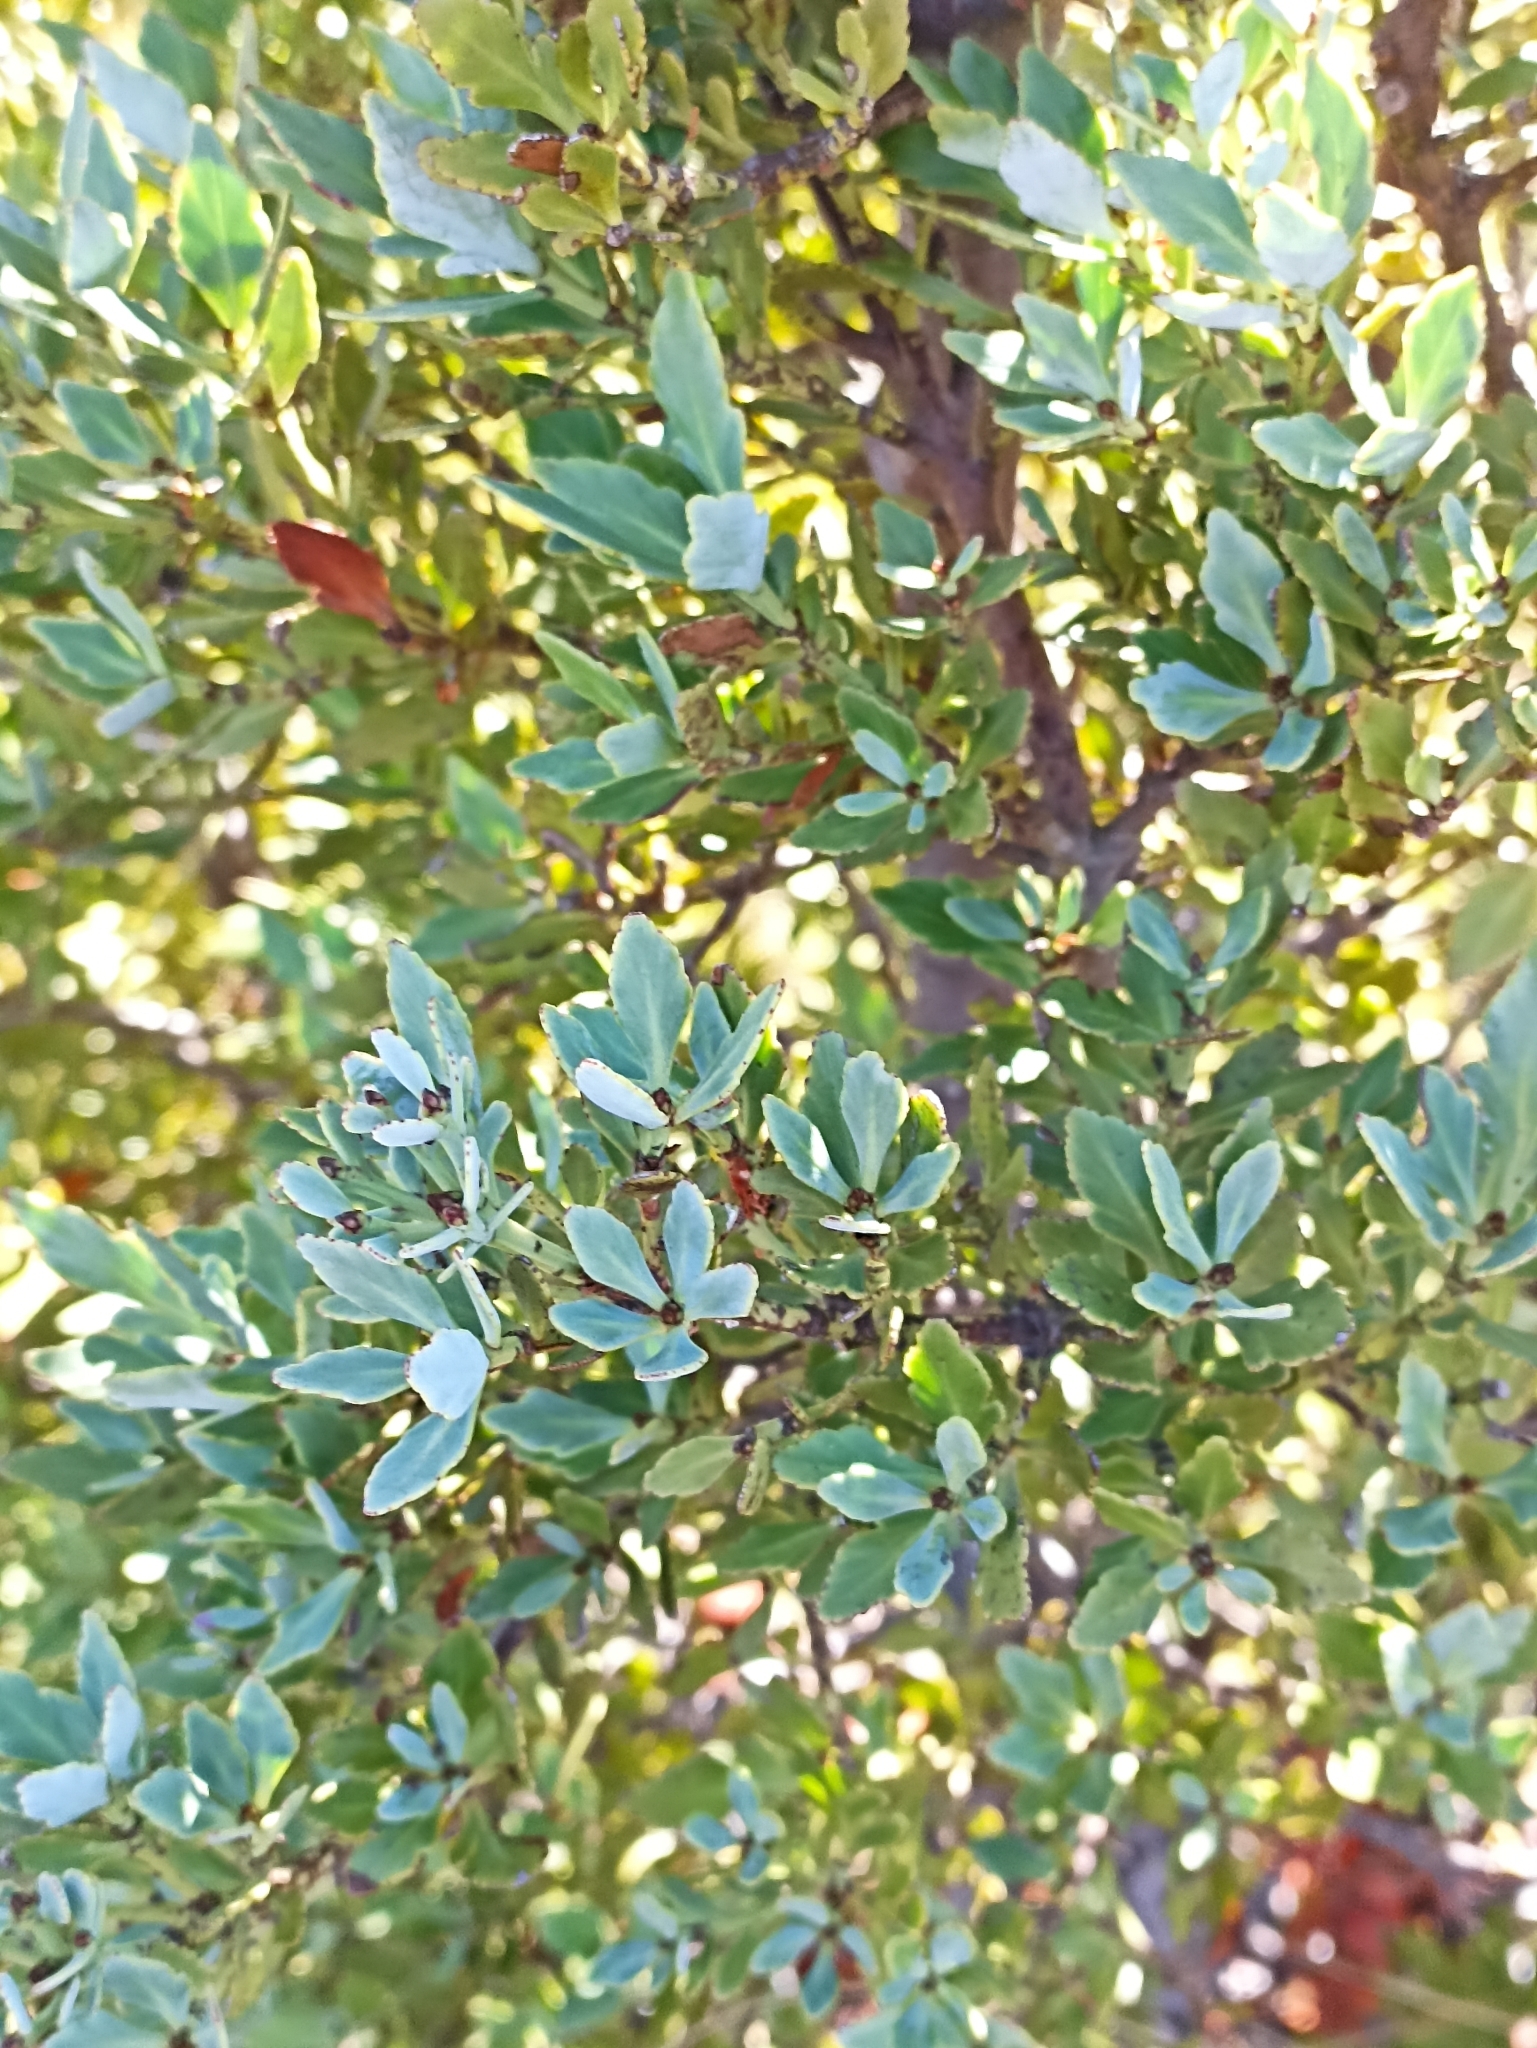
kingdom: Plantae
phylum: Tracheophyta
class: Pinopsida
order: Pinales
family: Phyllocladaceae
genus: Phyllocladus
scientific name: Phyllocladus trichomanoides
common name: Celery pine
